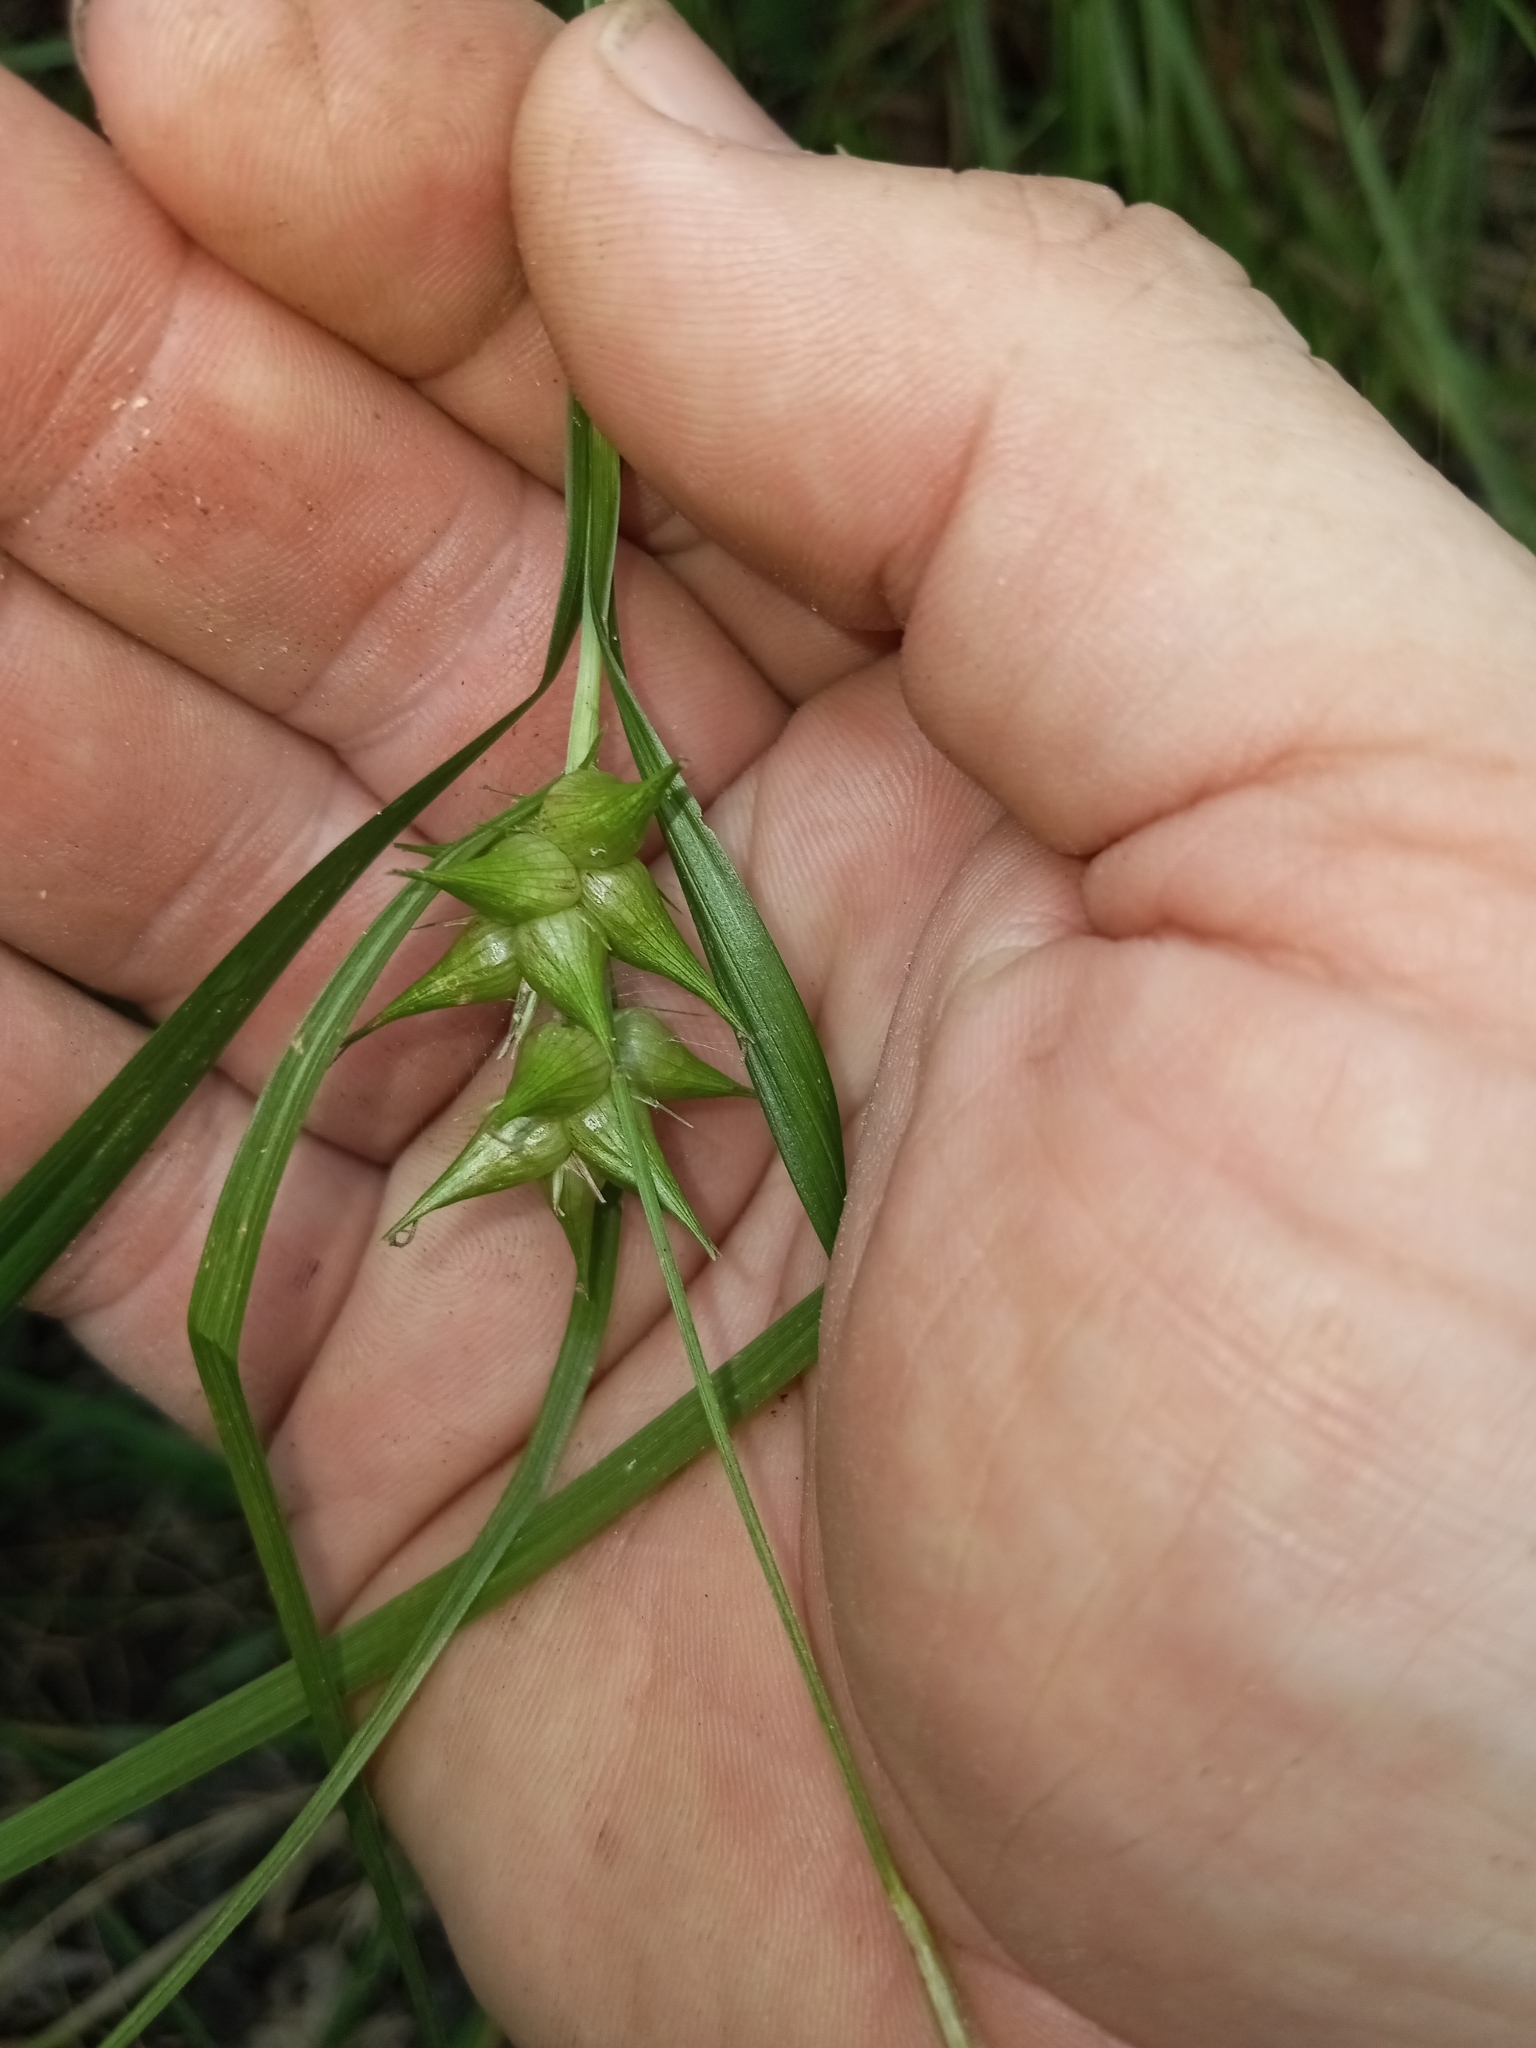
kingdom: Plantae
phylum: Tracheophyta
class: Liliopsida
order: Poales
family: Cyperaceae
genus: Carex
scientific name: Carex intumescens
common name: Greater bladder sedge
